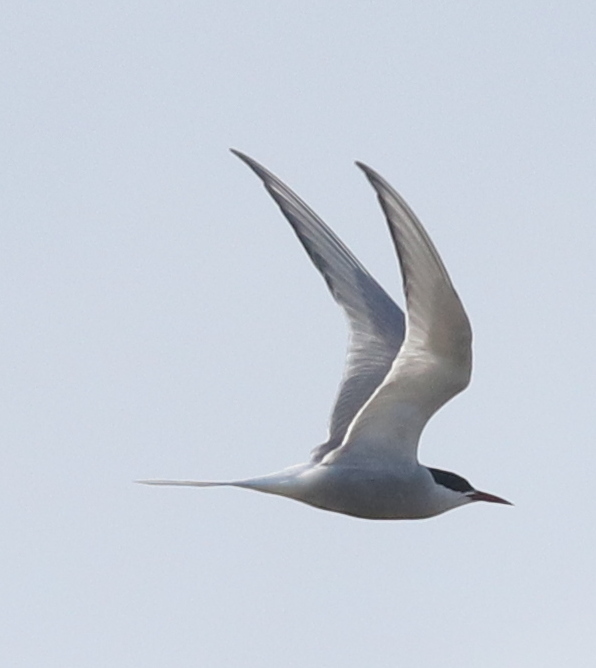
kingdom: Animalia
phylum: Chordata
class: Aves
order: Charadriiformes
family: Laridae
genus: Sterna
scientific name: Sterna paradisaea
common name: Arctic tern
